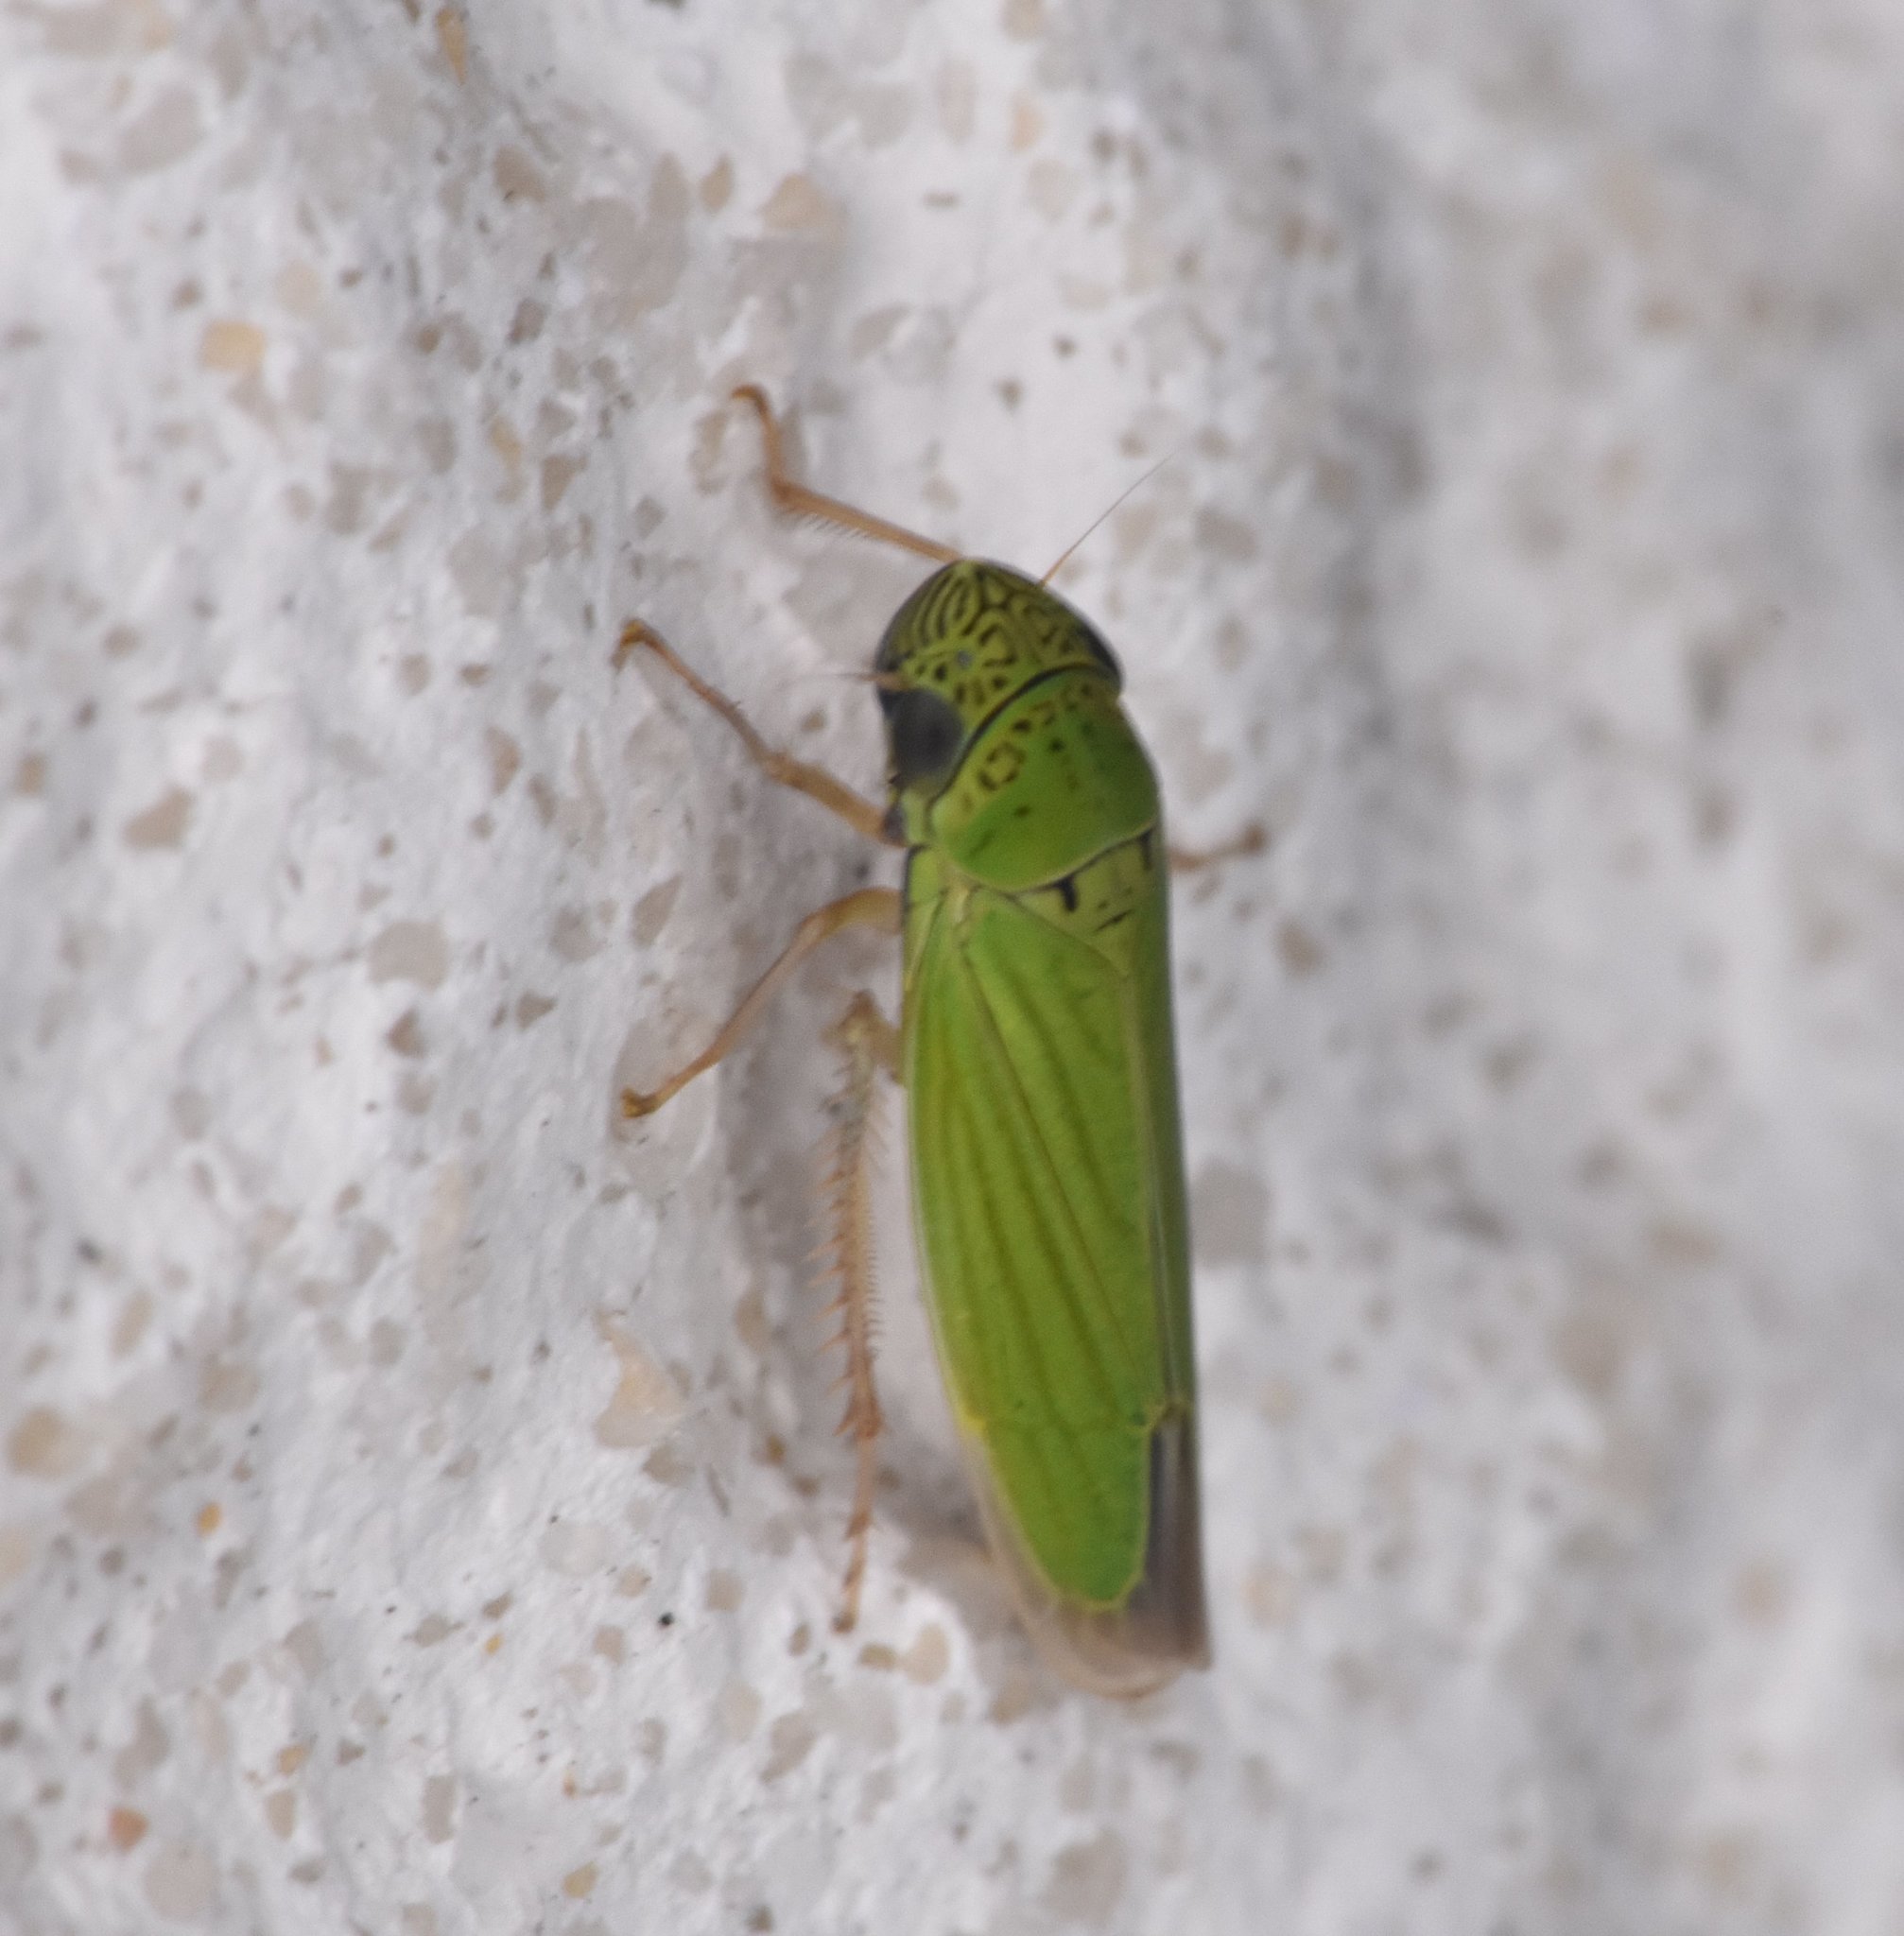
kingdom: Animalia
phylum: Arthropoda
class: Insecta
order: Hemiptera
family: Cicadellidae
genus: Hortensia
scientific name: Hortensia similis
